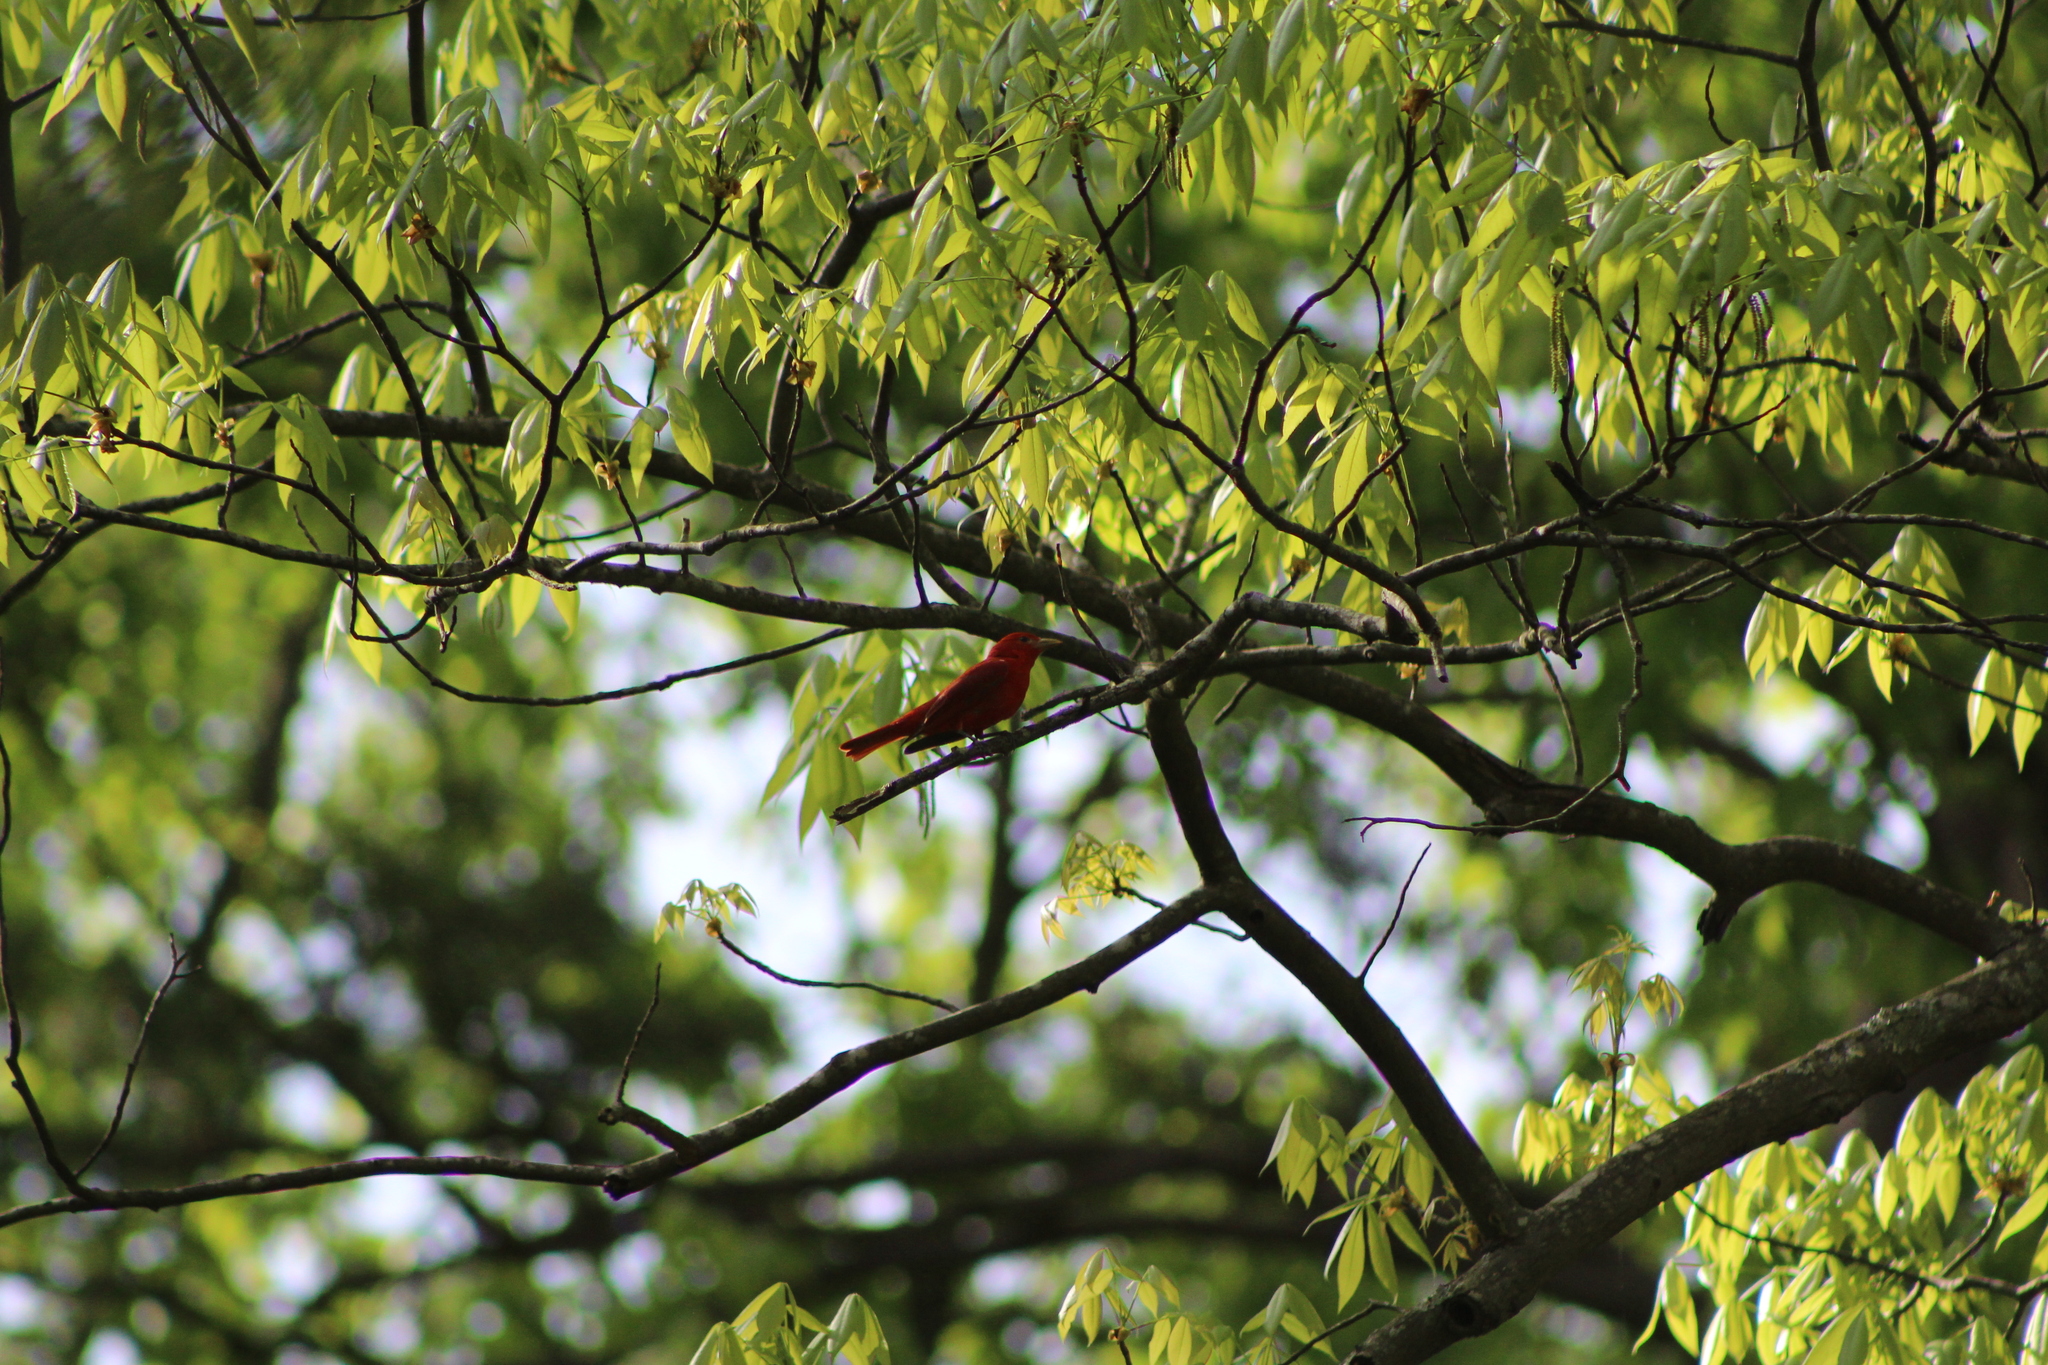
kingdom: Animalia
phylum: Chordata
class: Aves
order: Passeriformes
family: Cardinalidae
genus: Piranga
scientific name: Piranga rubra
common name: Summer tanager
